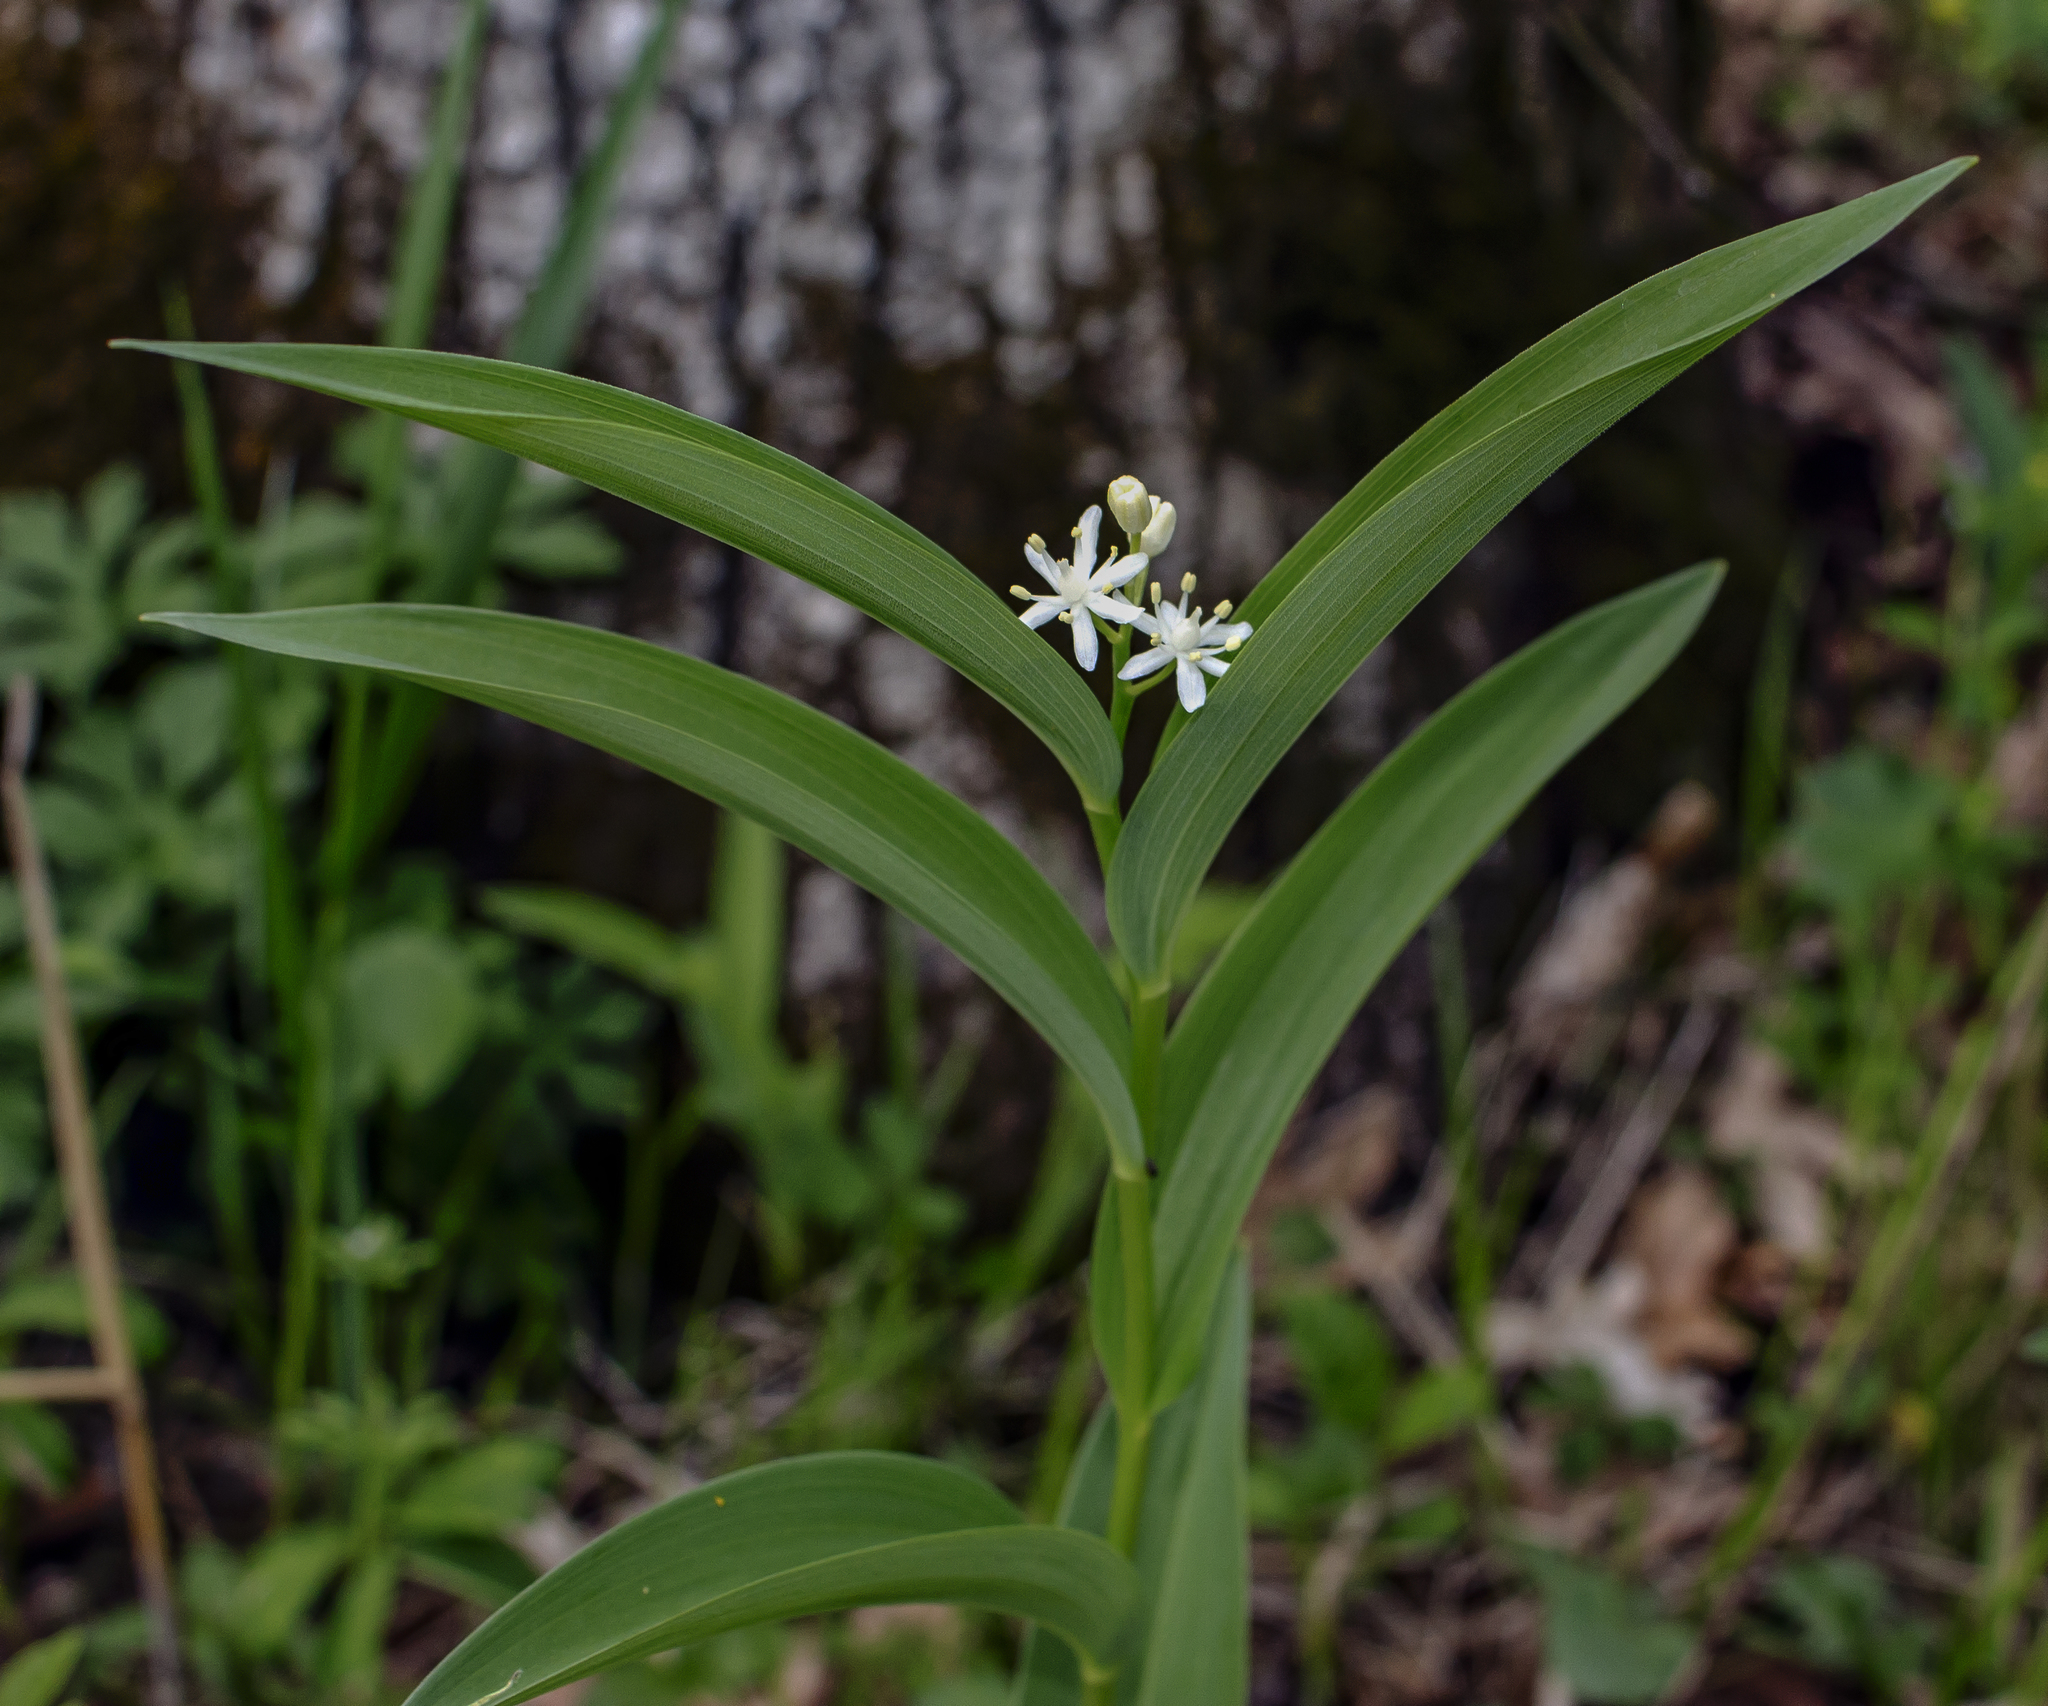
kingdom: Plantae
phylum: Tracheophyta
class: Liliopsida
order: Asparagales
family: Asparagaceae
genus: Maianthemum
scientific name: Maianthemum stellatum
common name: Little false solomon's seal
